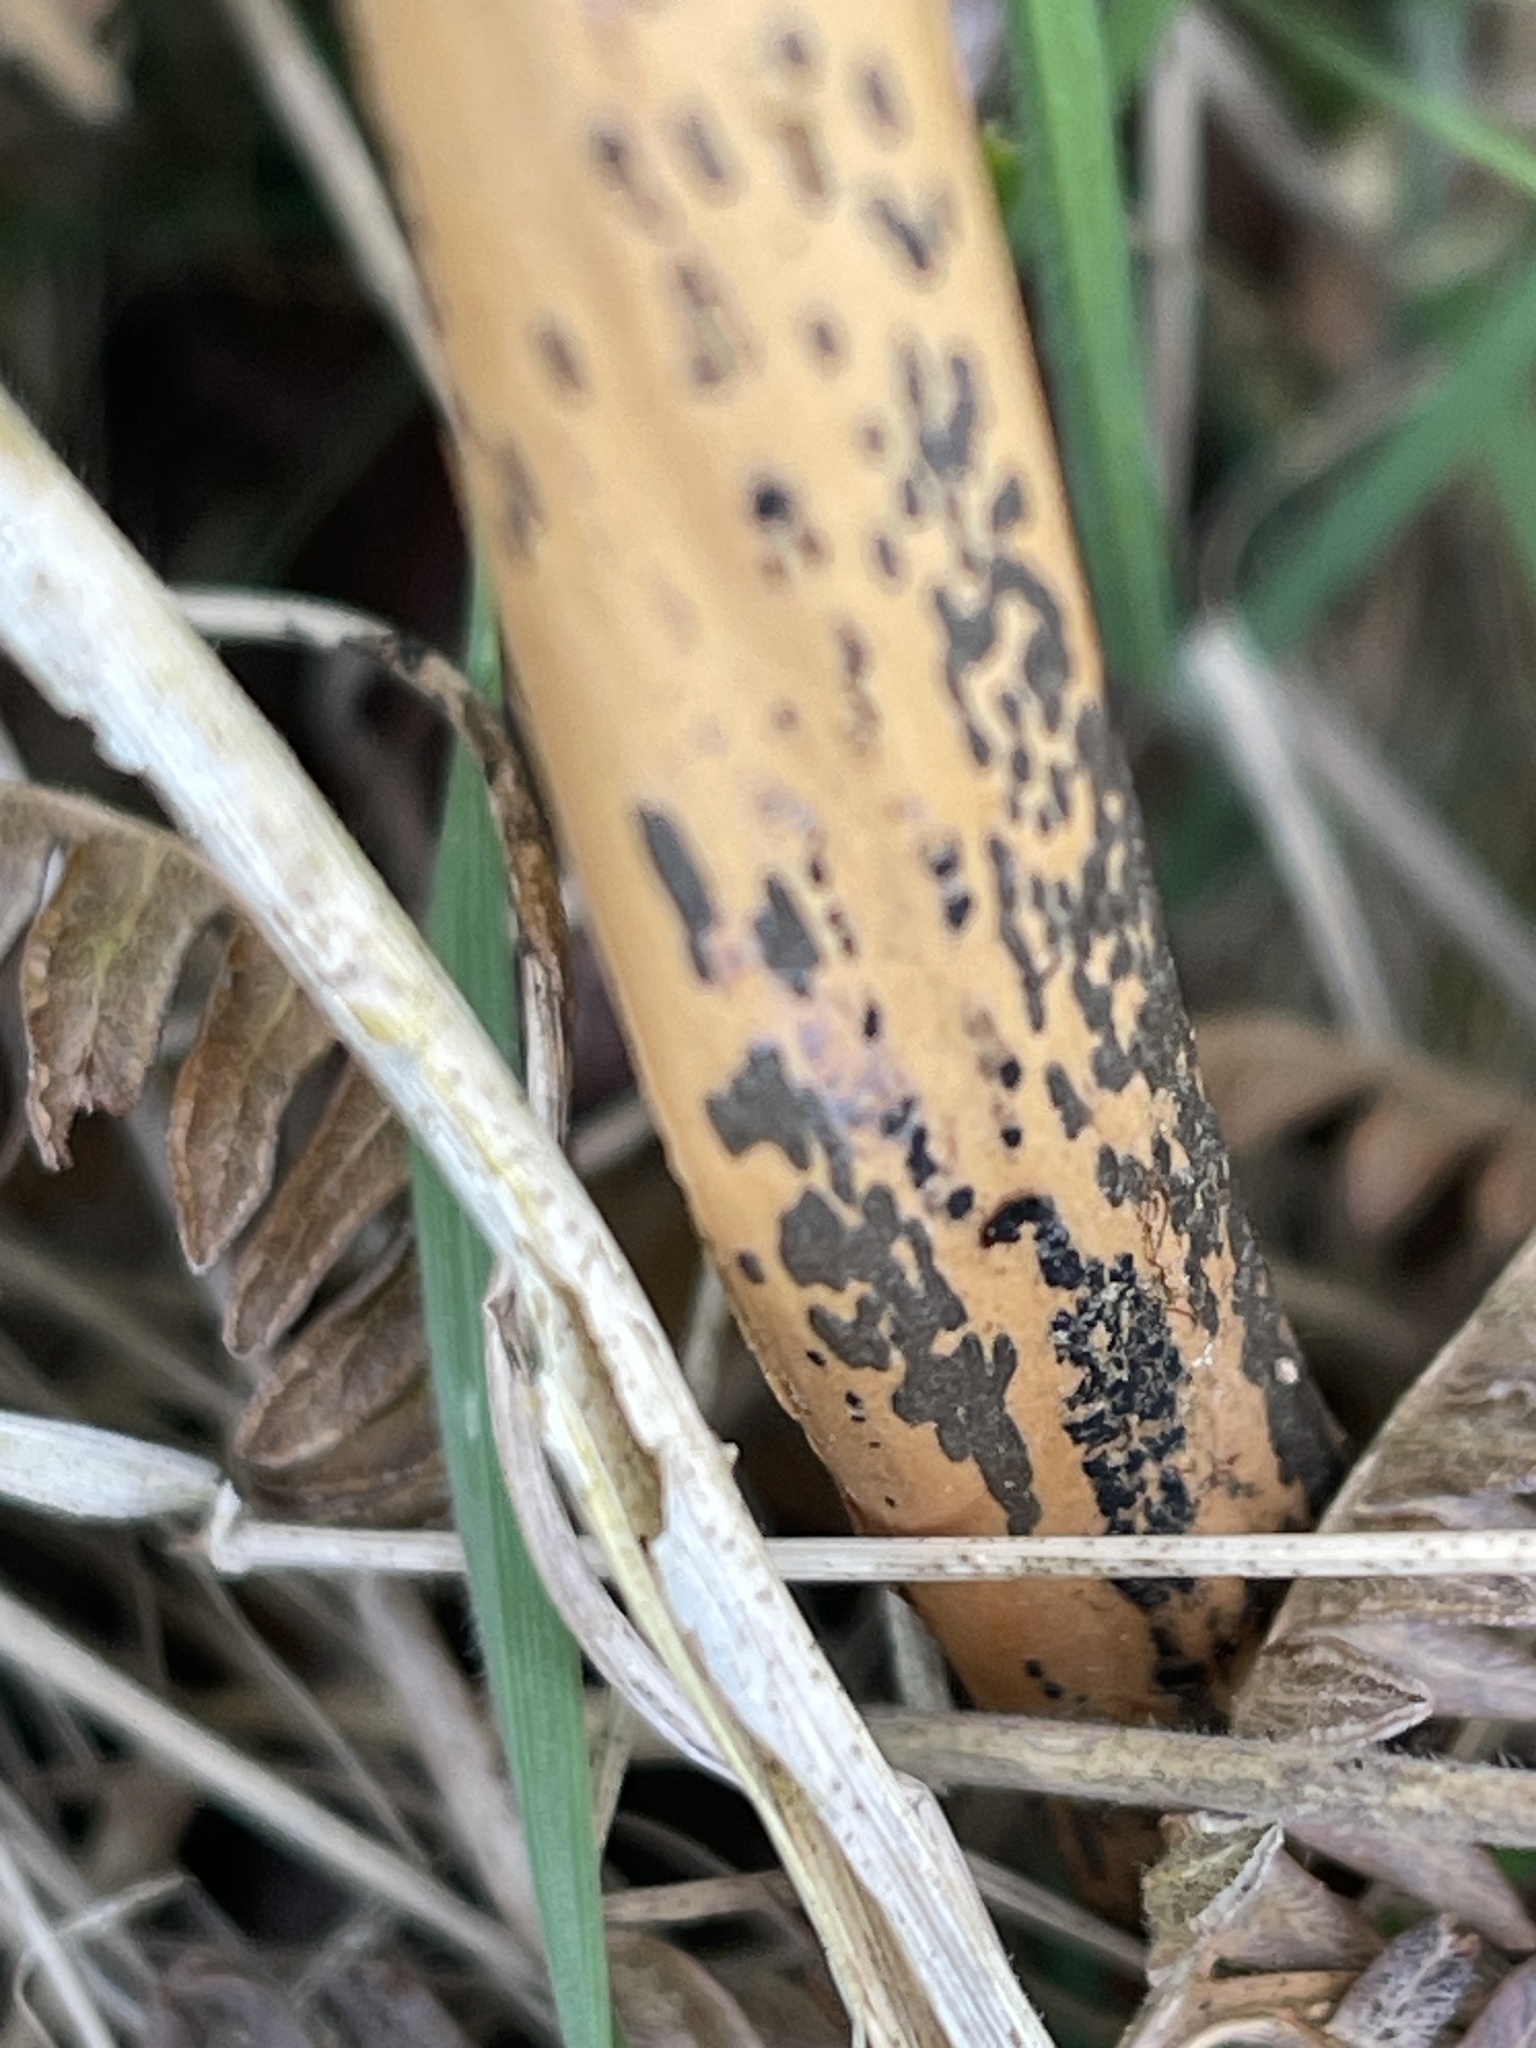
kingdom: Fungi
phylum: Ascomycota
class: Dothideomycetes
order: Pleosporales
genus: Rhopographus
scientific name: Rhopographus filicinus
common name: Bracken map
